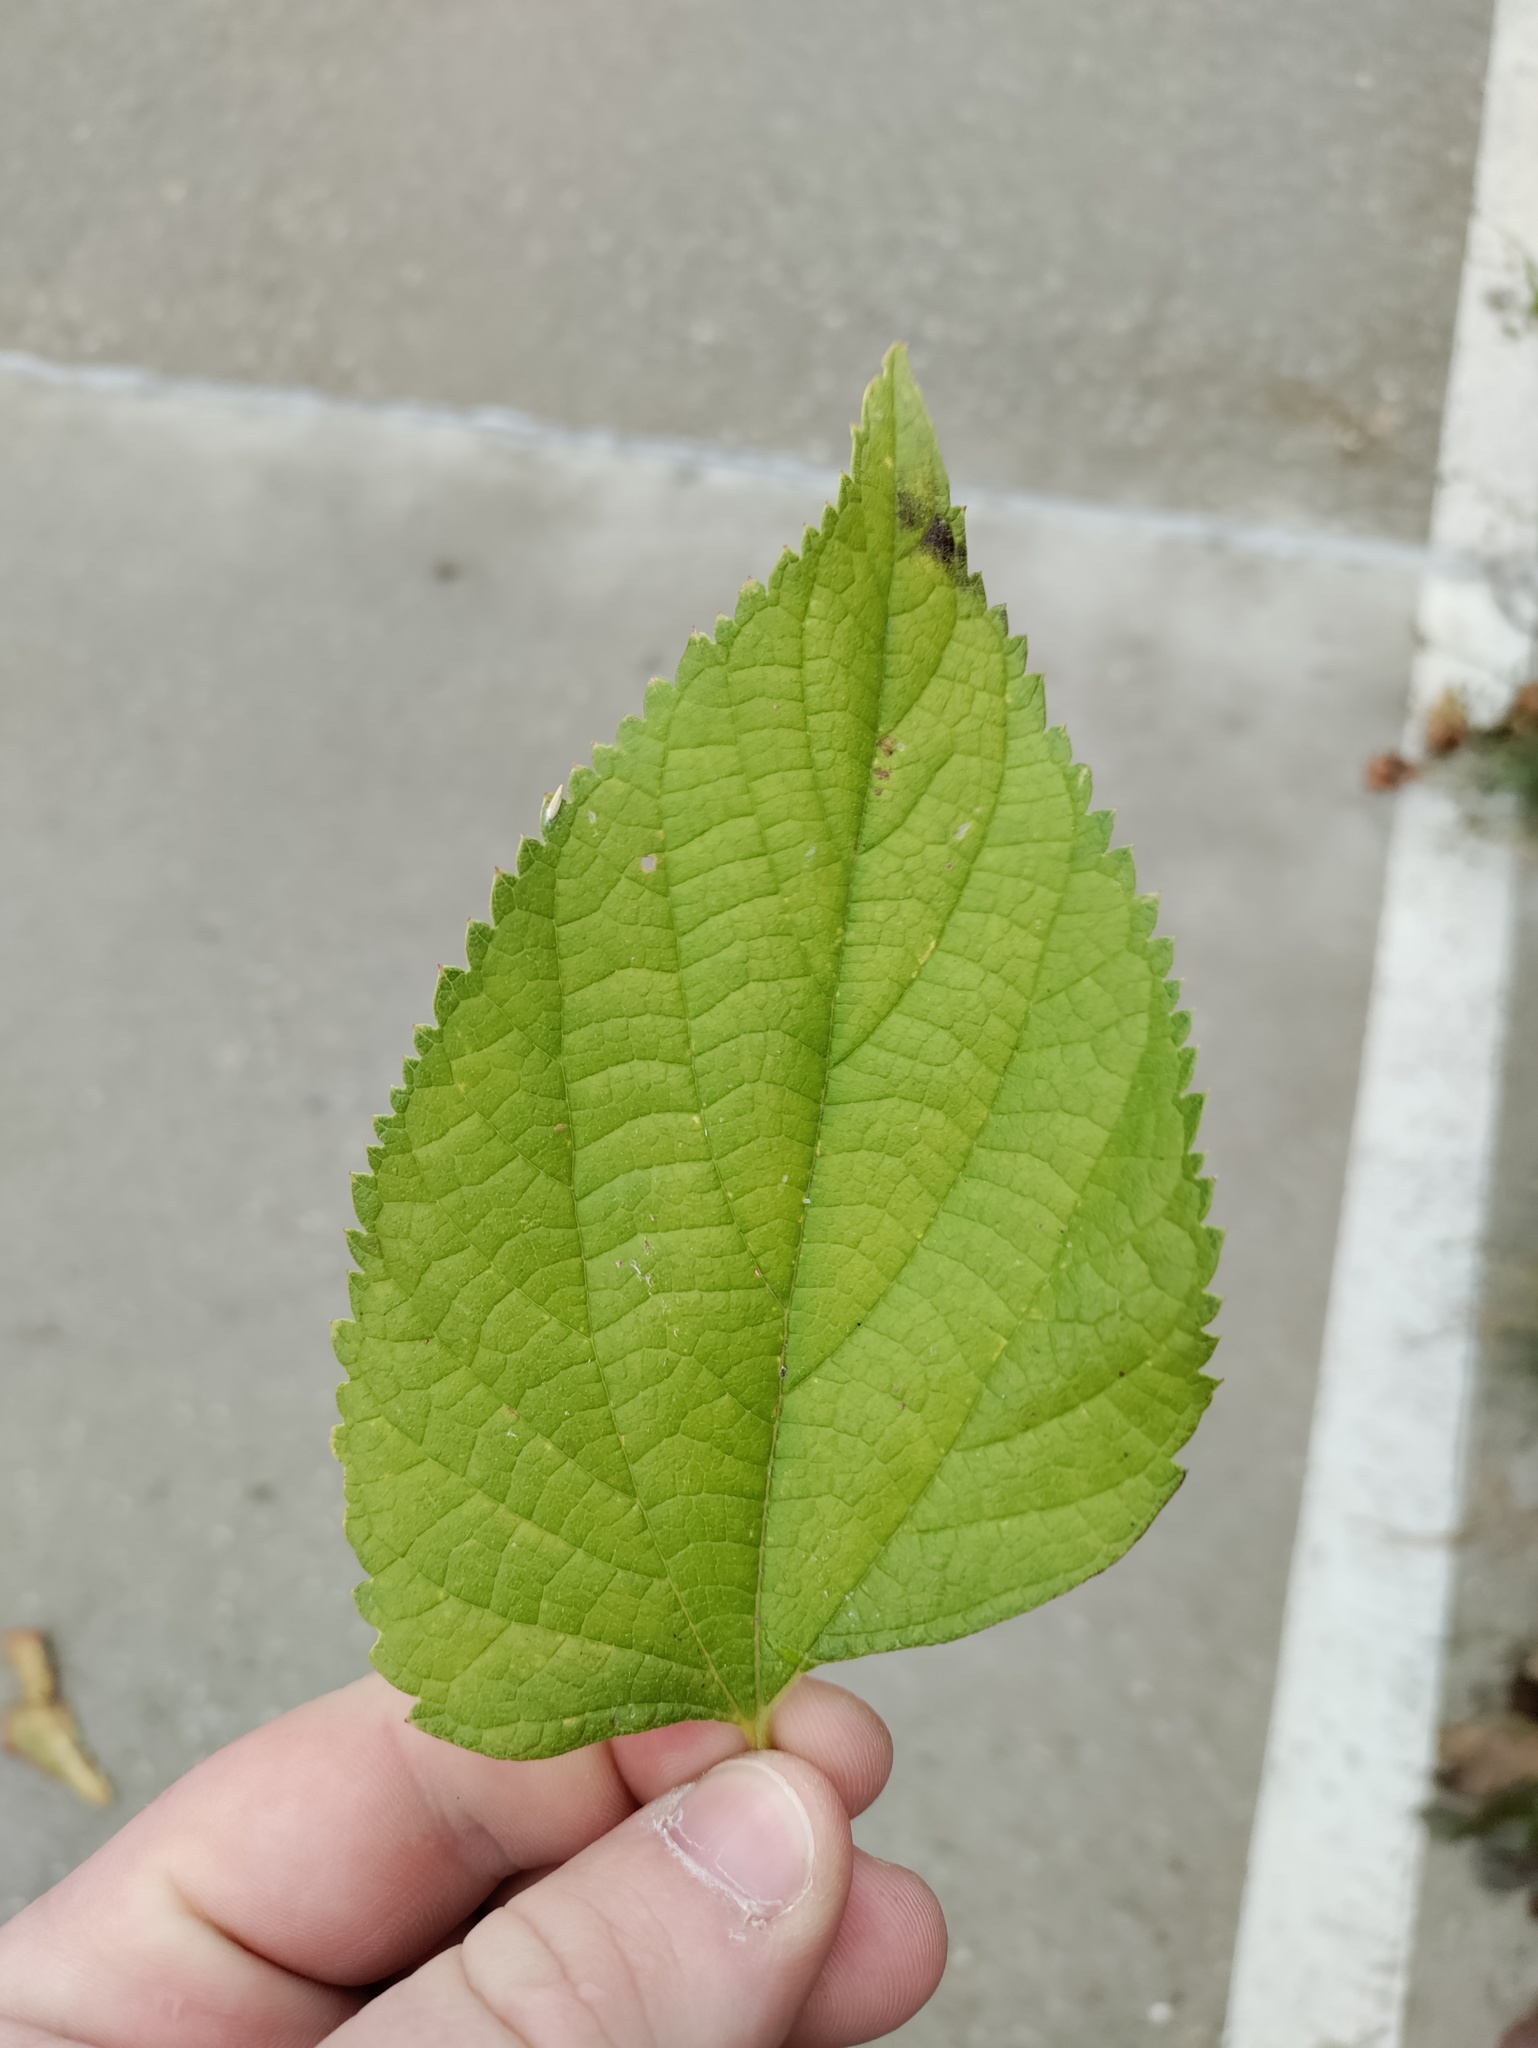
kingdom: Plantae
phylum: Tracheophyta
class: Magnoliopsida
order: Rosales
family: Cannabaceae
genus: Celtis
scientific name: Celtis australis
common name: European hackberry
